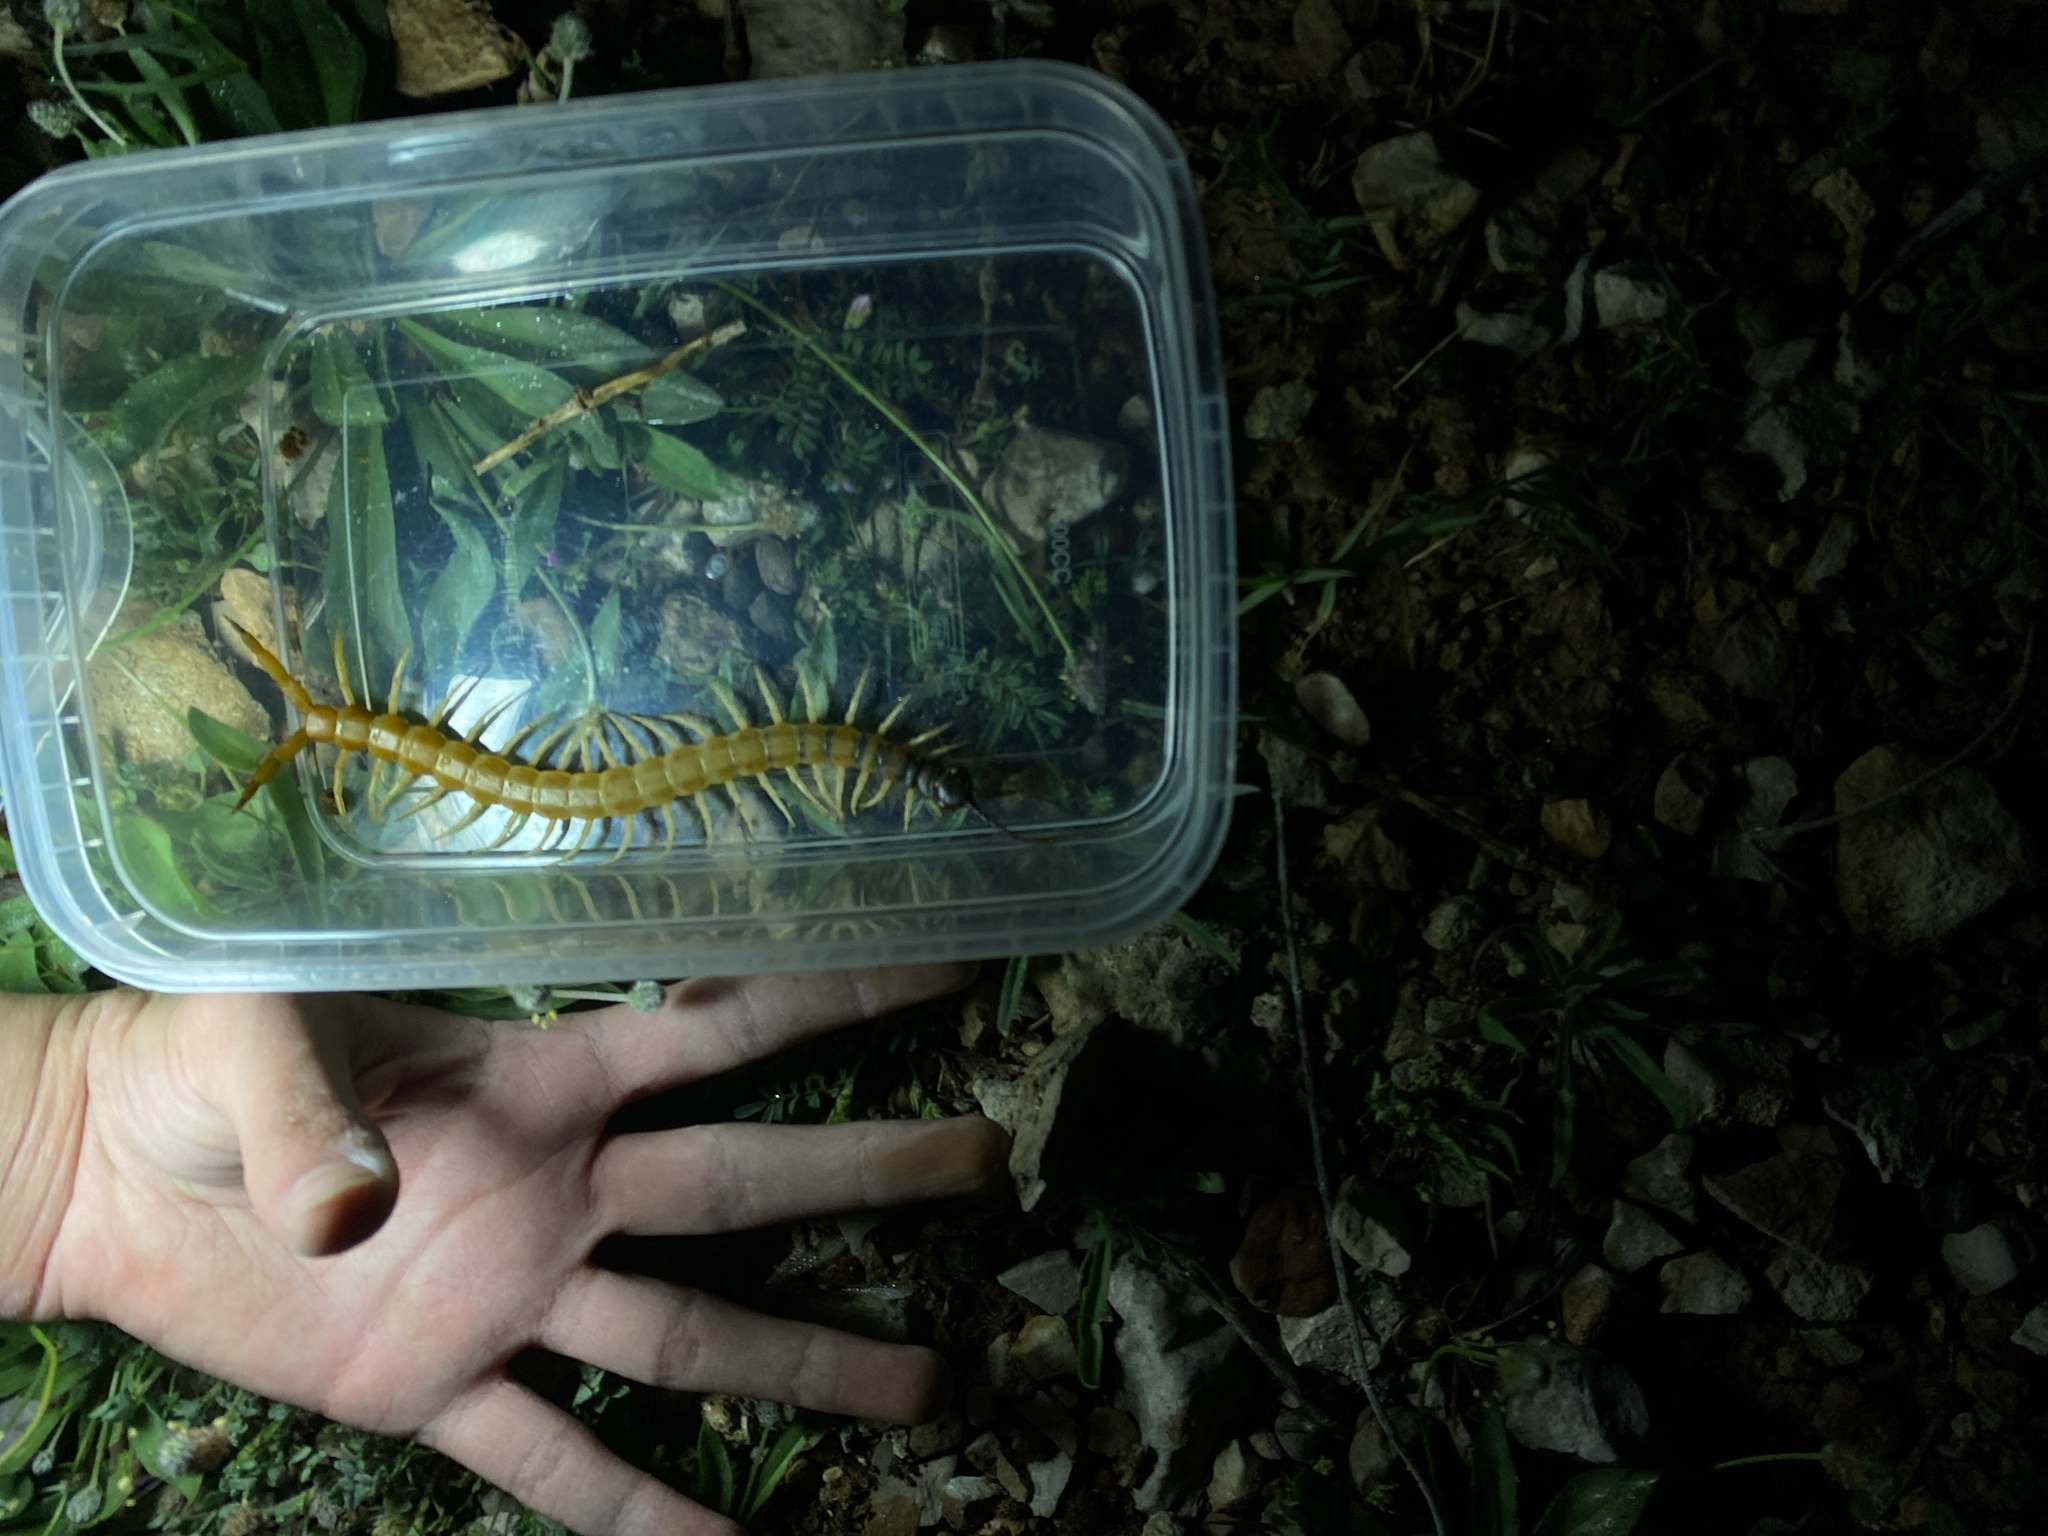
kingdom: Animalia
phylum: Arthropoda
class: Chilopoda
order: Scolopendromorpha
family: Scolopendridae
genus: Scolopendra
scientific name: Scolopendra valida
